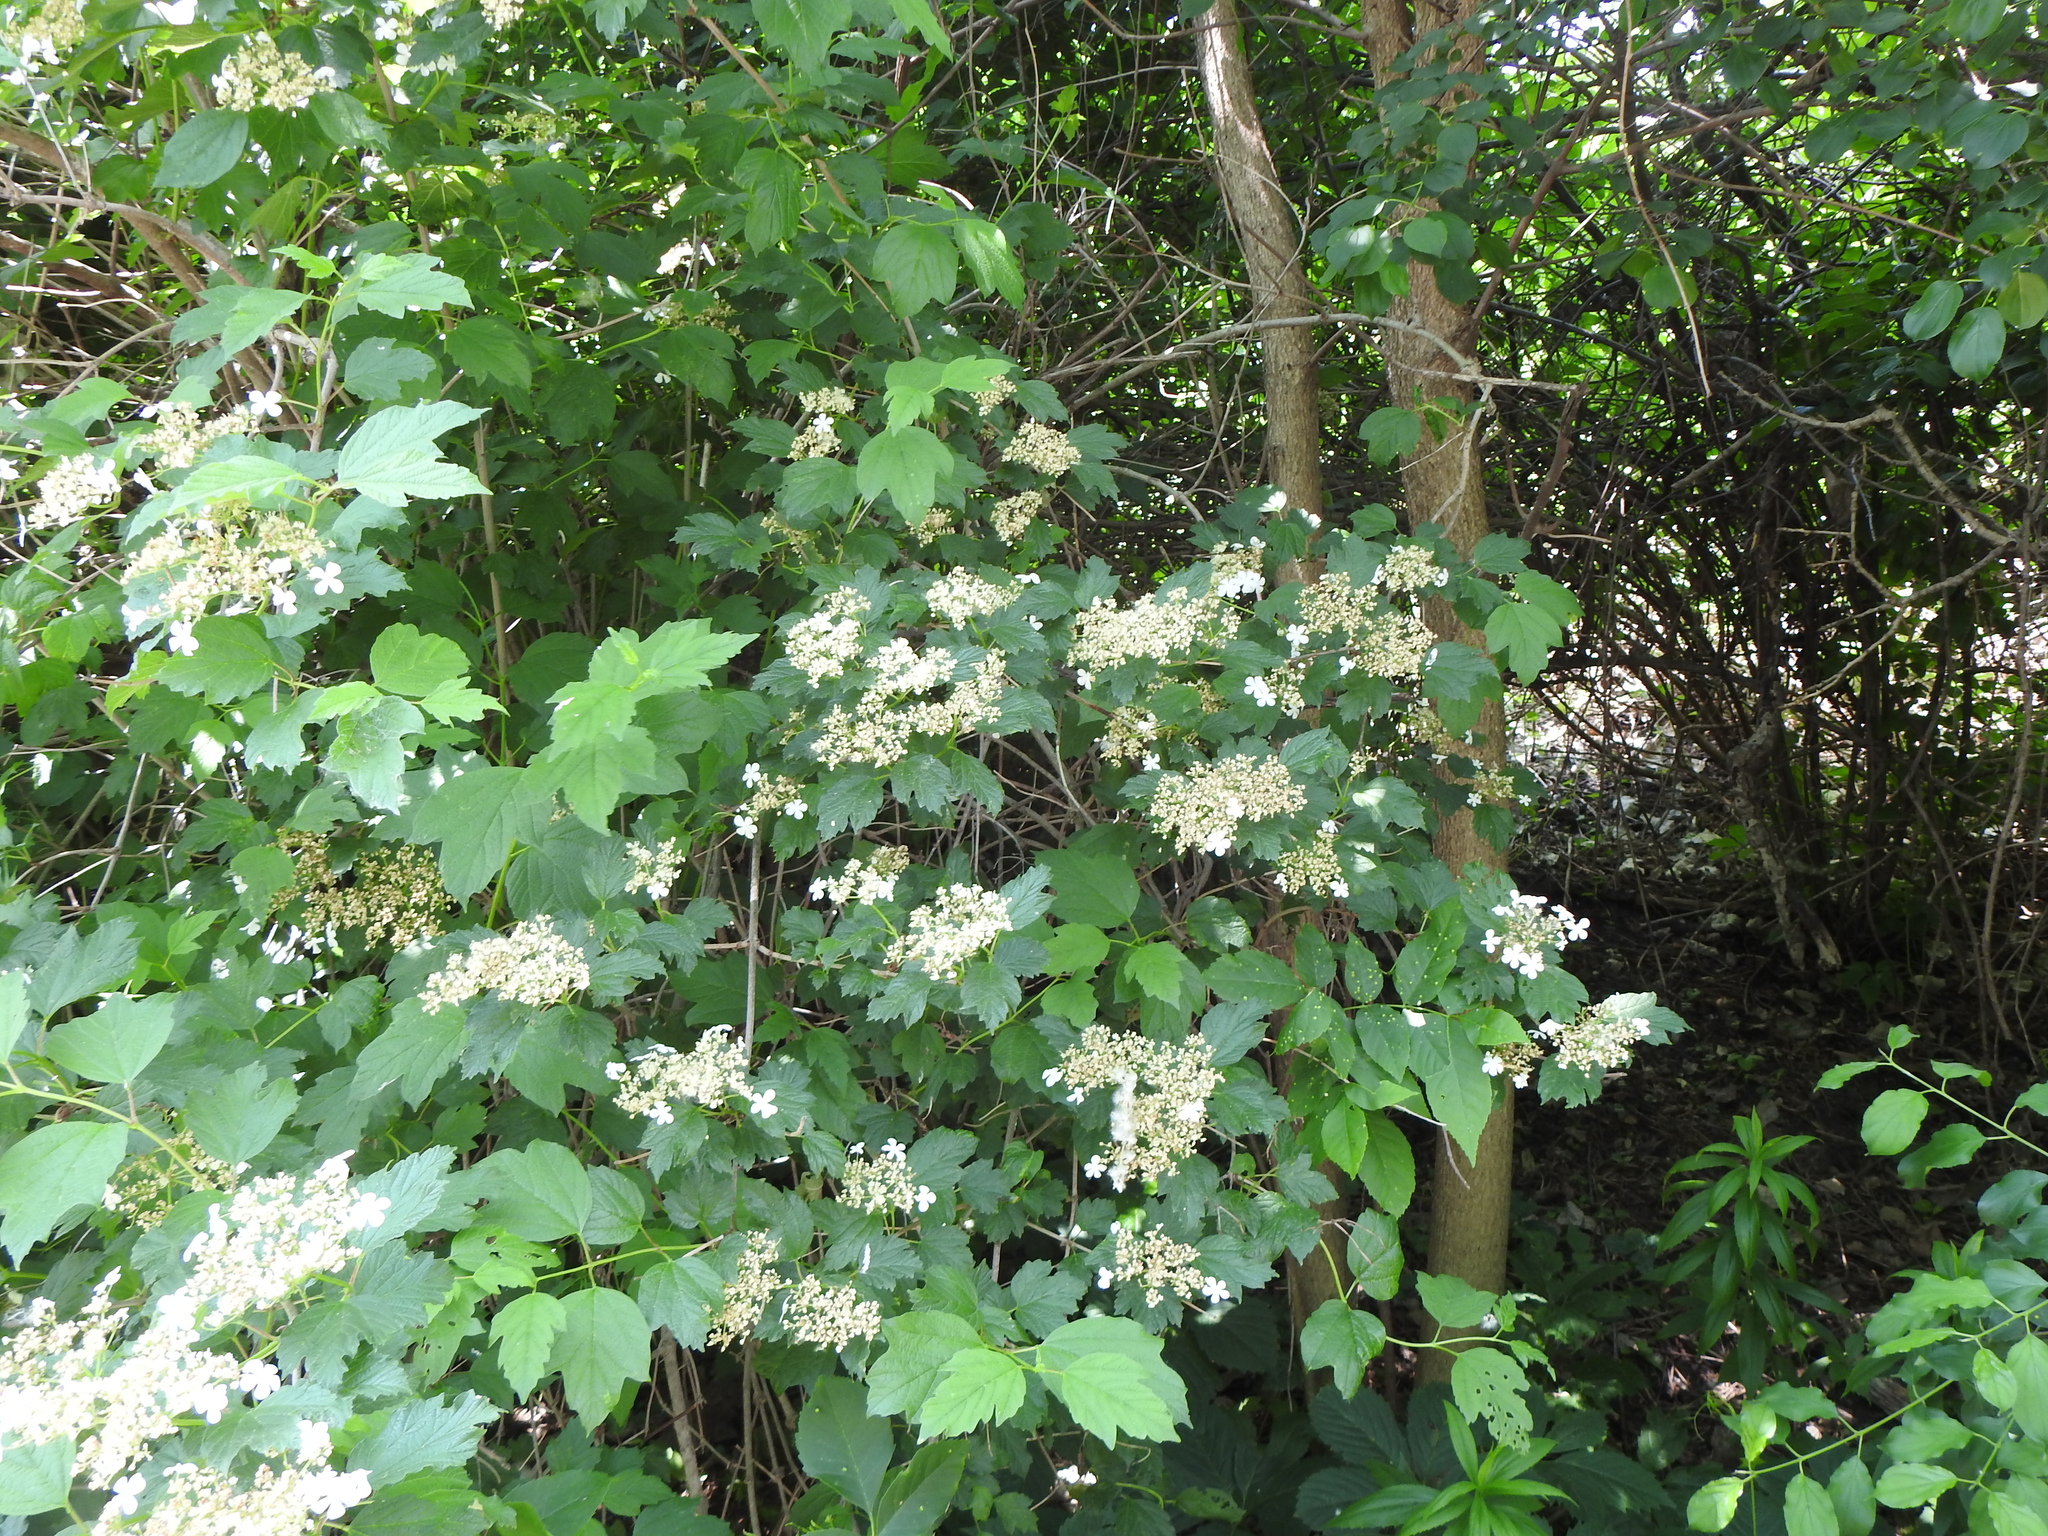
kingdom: Plantae
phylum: Tracheophyta
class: Magnoliopsida
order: Dipsacales
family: Viburnaceae
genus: Viburnum
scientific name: Viburnum opulus
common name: Guelder-rose
